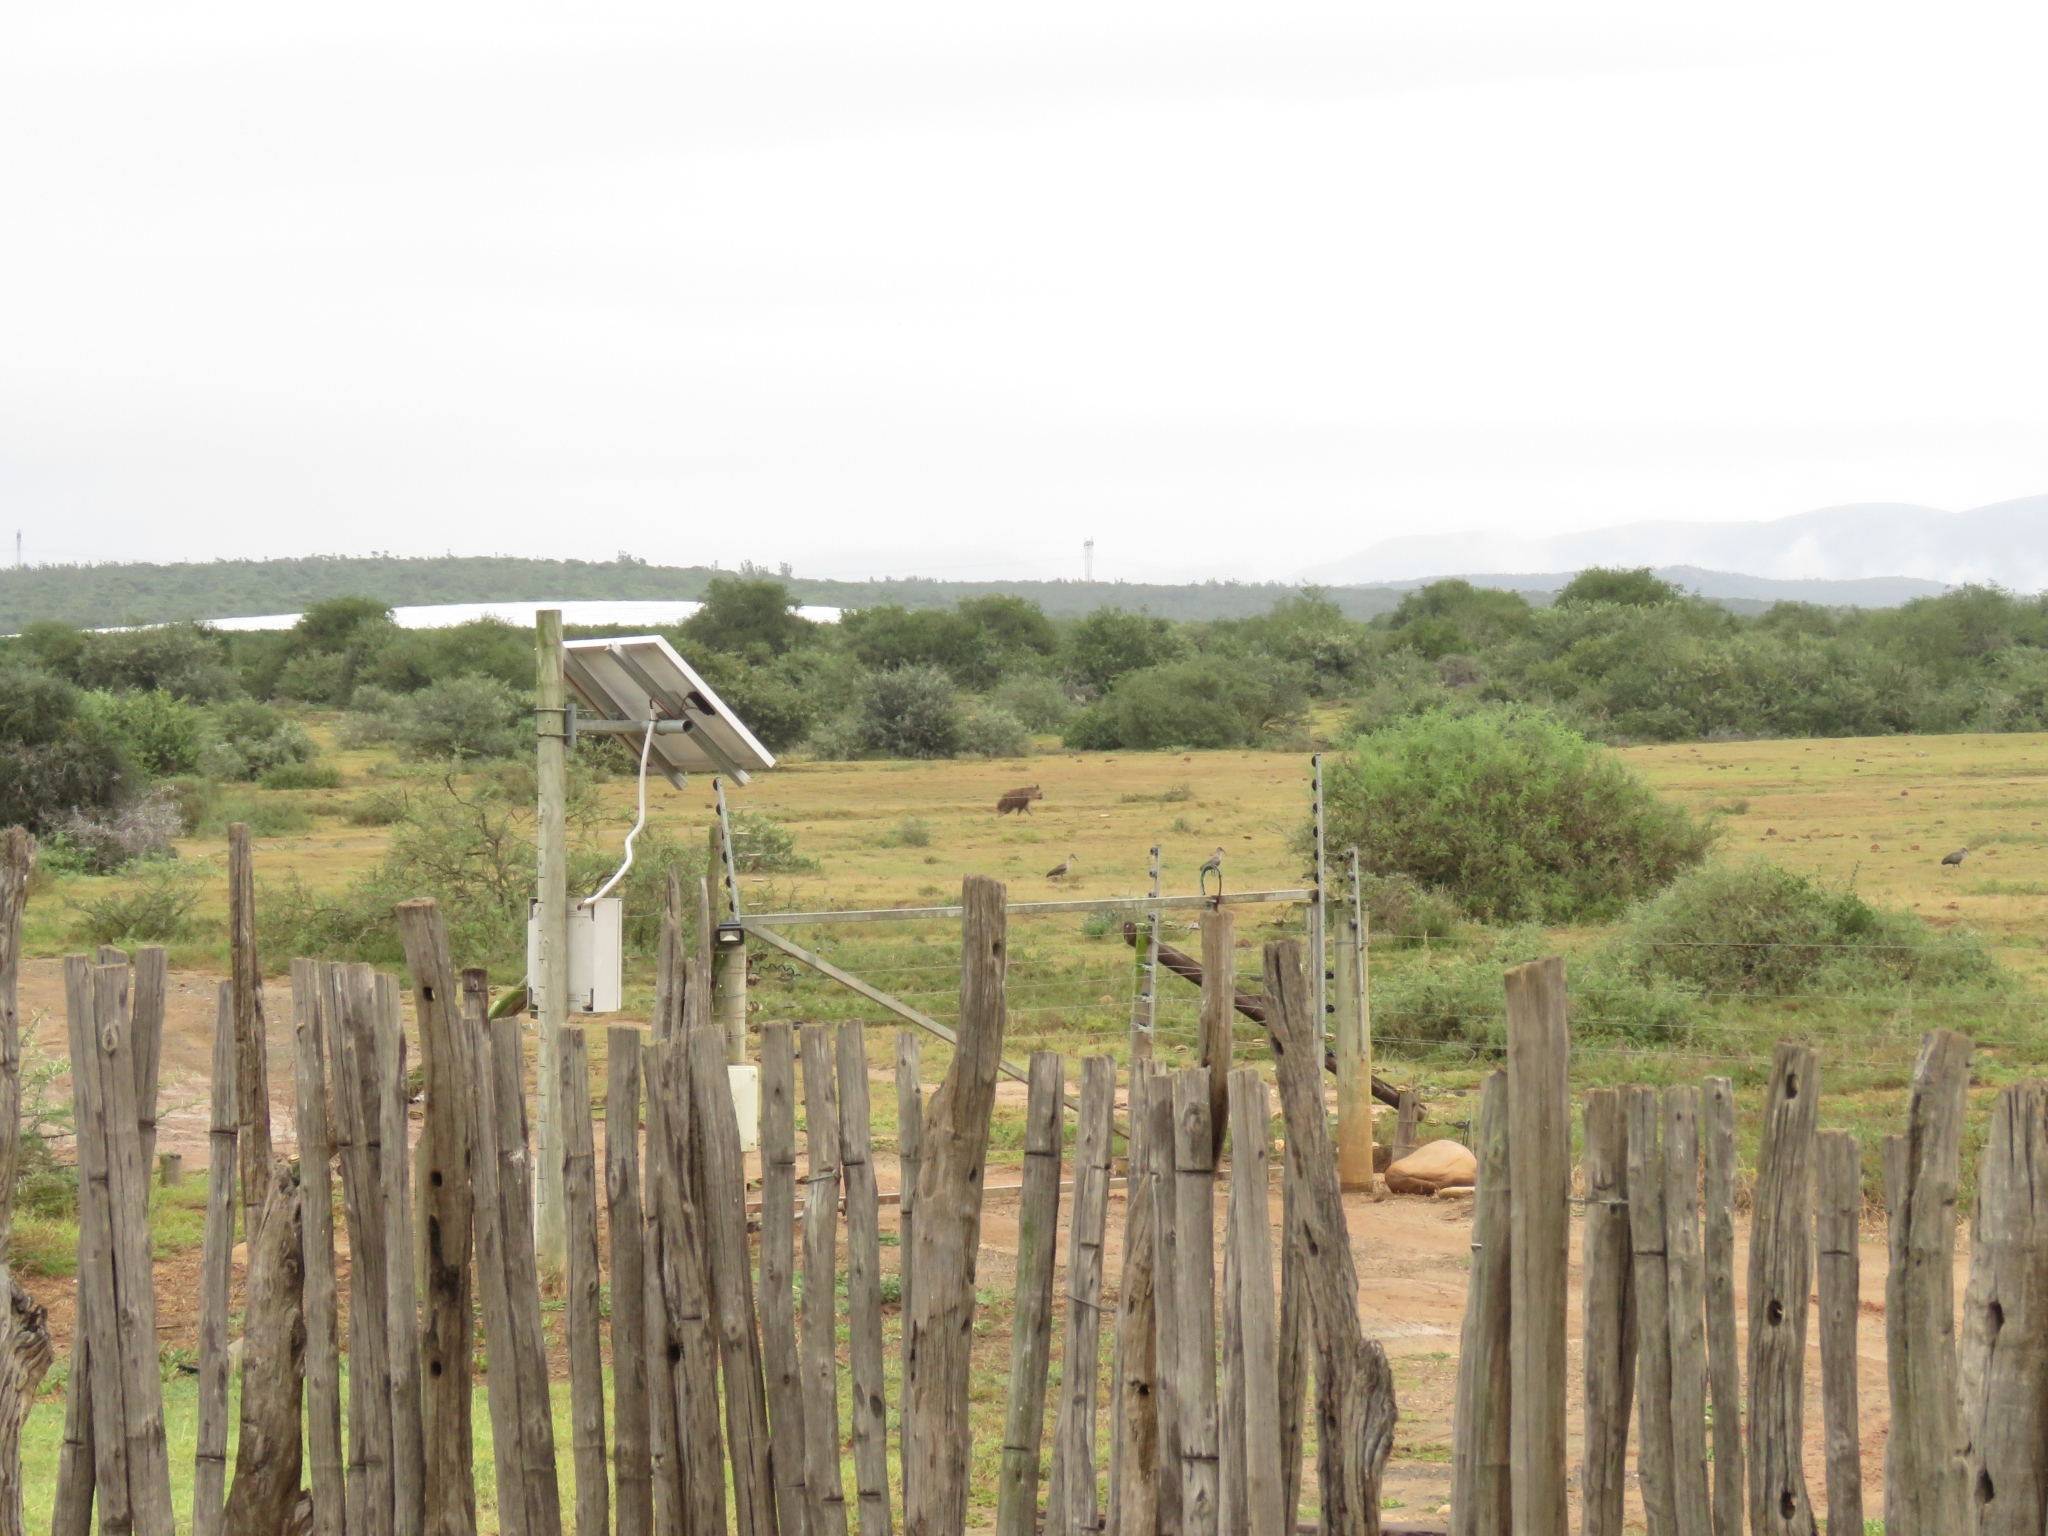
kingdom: Animalia
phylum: Chordata
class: Mammalia
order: Carnivora
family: Hyaenidae
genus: Hyaena
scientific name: Hyaena brunnea
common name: Brown hyena
